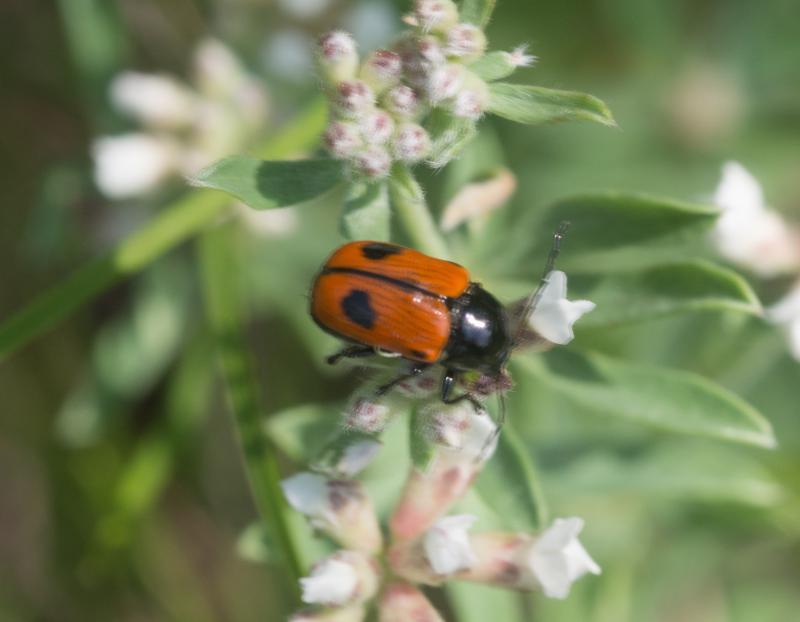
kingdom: Animalia
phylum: Arthropoda
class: Insecta
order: Coleoptera
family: Chrysomelidae
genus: Chiridopsis
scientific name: Chiridopsis bipunctata
